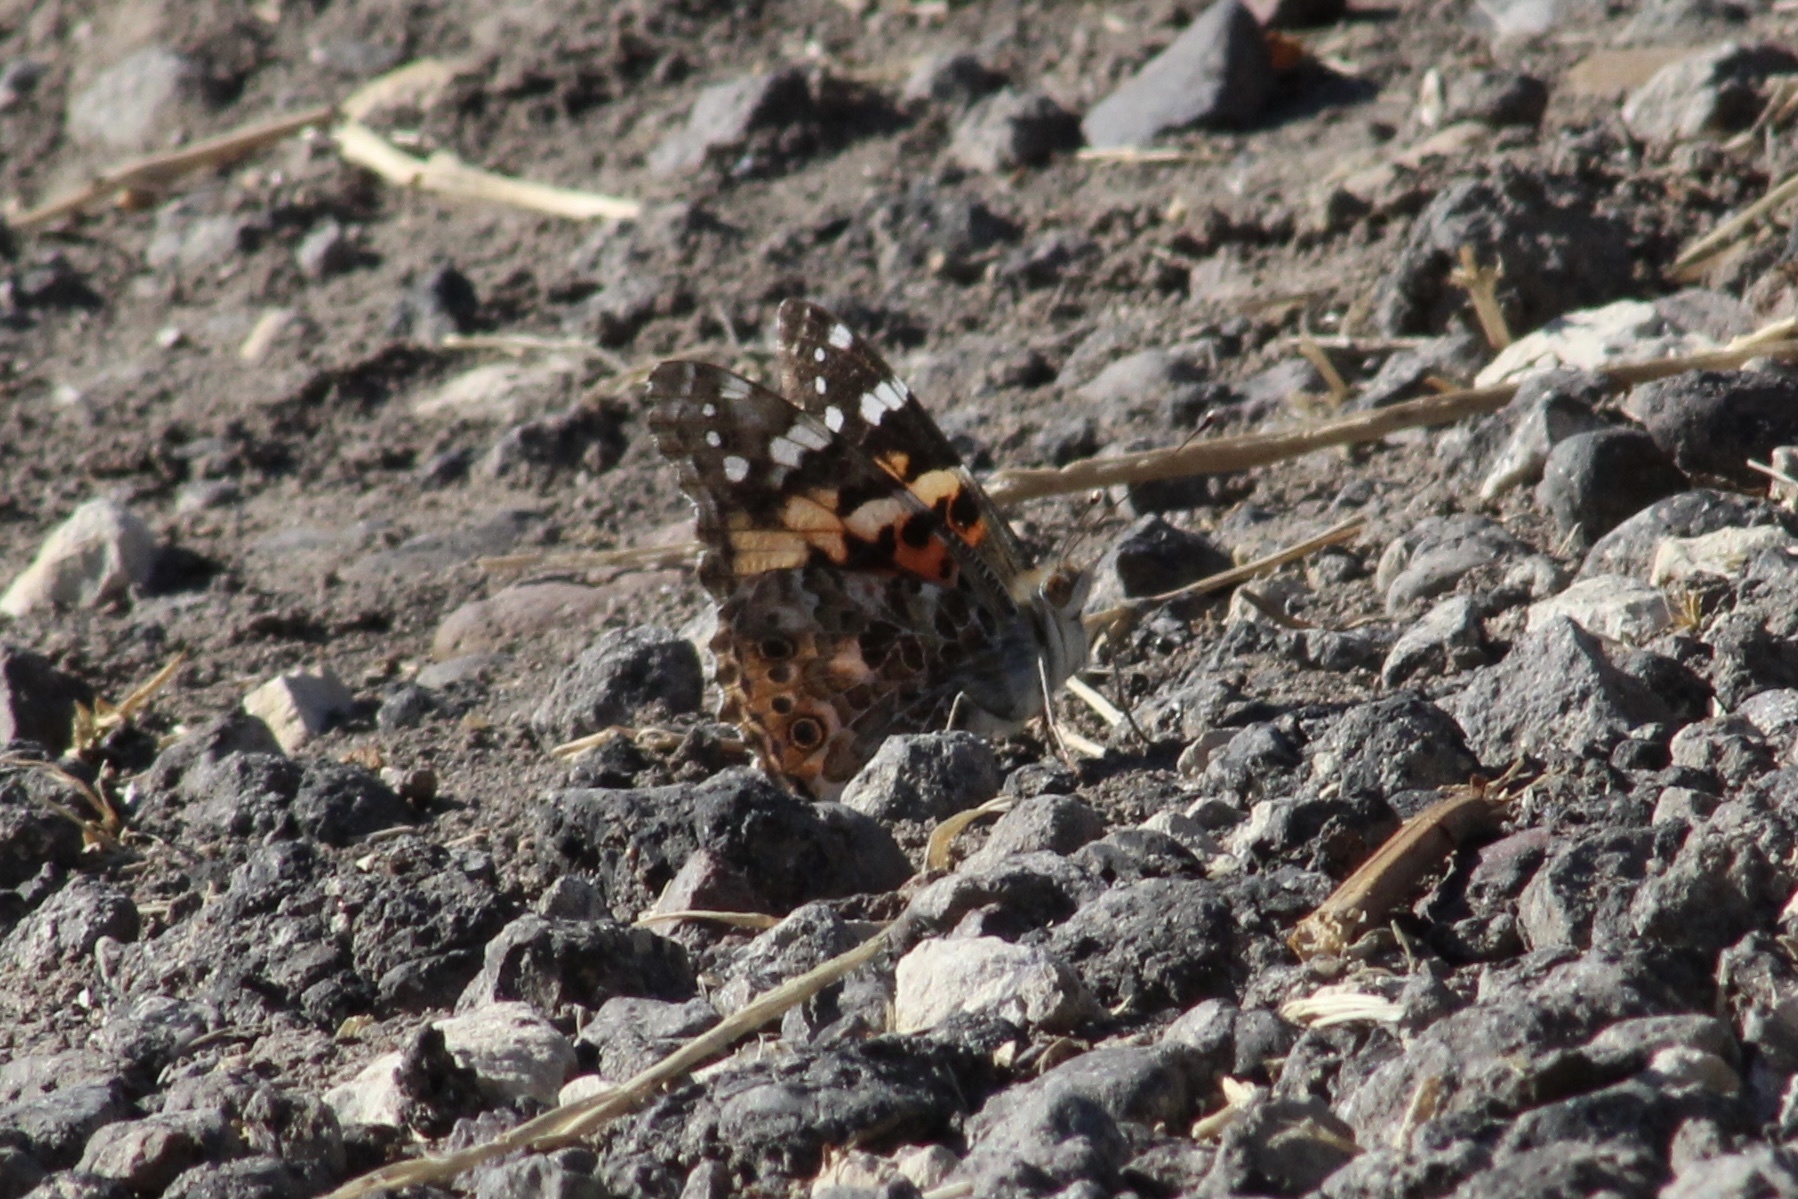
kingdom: Animalia
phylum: Arthropoda
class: Insecta
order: Lepidoptera
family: Nymphalidae
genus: Vanessa
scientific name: Vanessa cardui
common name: Painted lady
